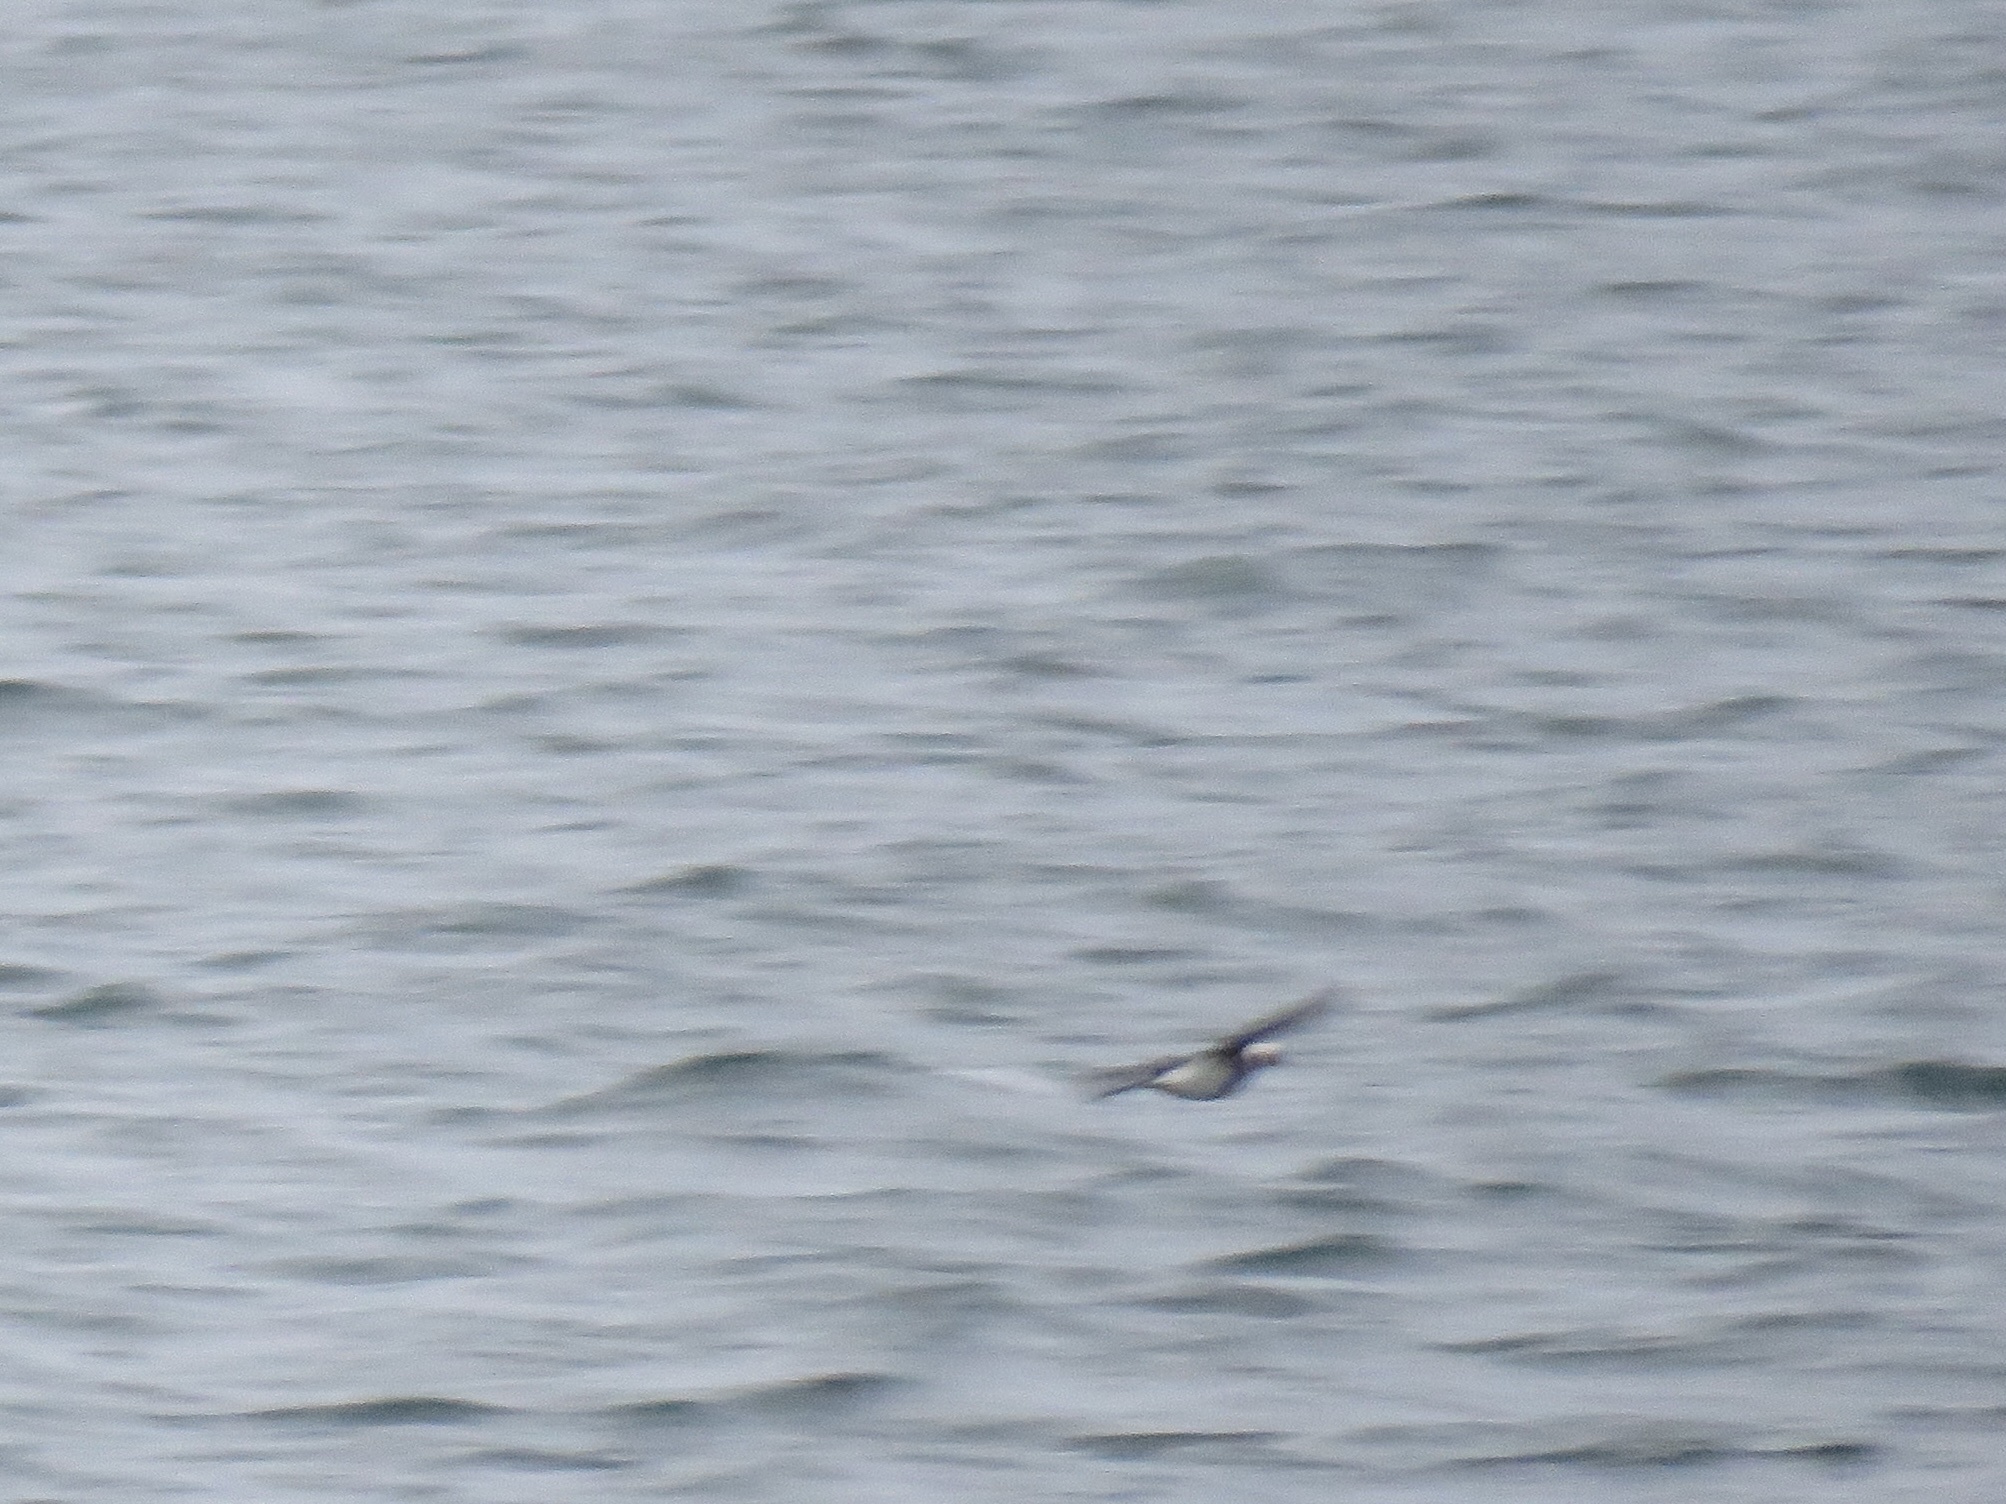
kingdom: Animalia
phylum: Chordata
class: Aves
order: Anseriformes
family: Anatidae
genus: Clangula
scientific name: Clangula hyemalis
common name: Long-tailed duck
